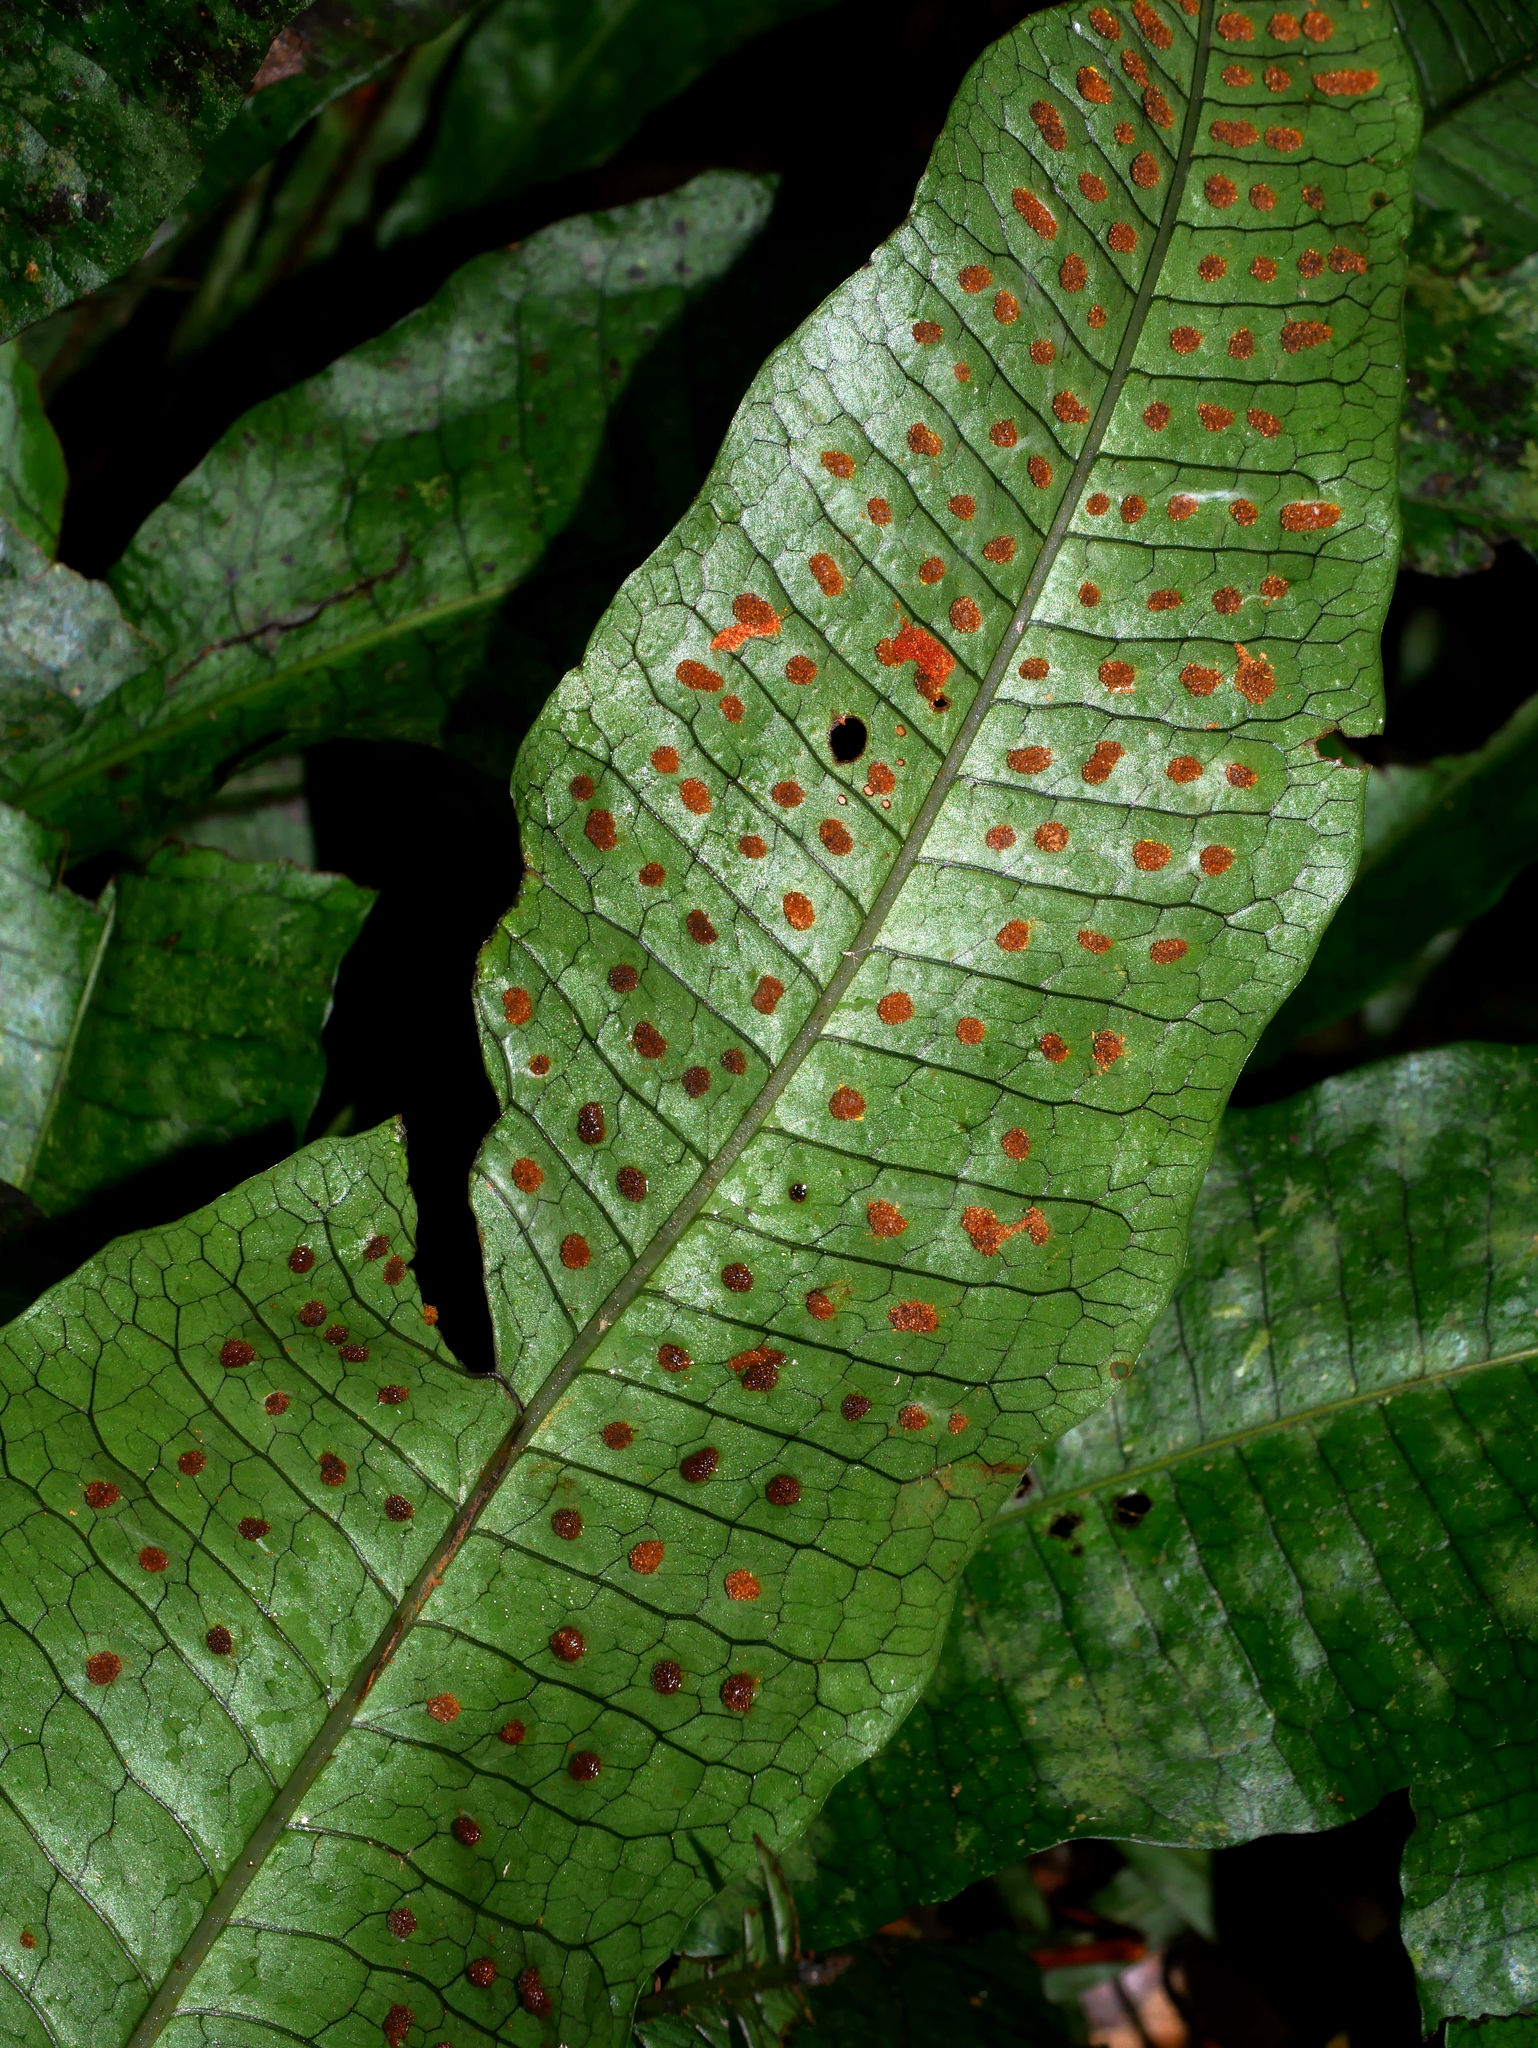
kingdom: Plantae
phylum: Tracheophyta
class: Polypodiopsida
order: Polypodiales
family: Polypodiaceae
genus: Leptochilus
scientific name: Leptochilus hemionitideus
